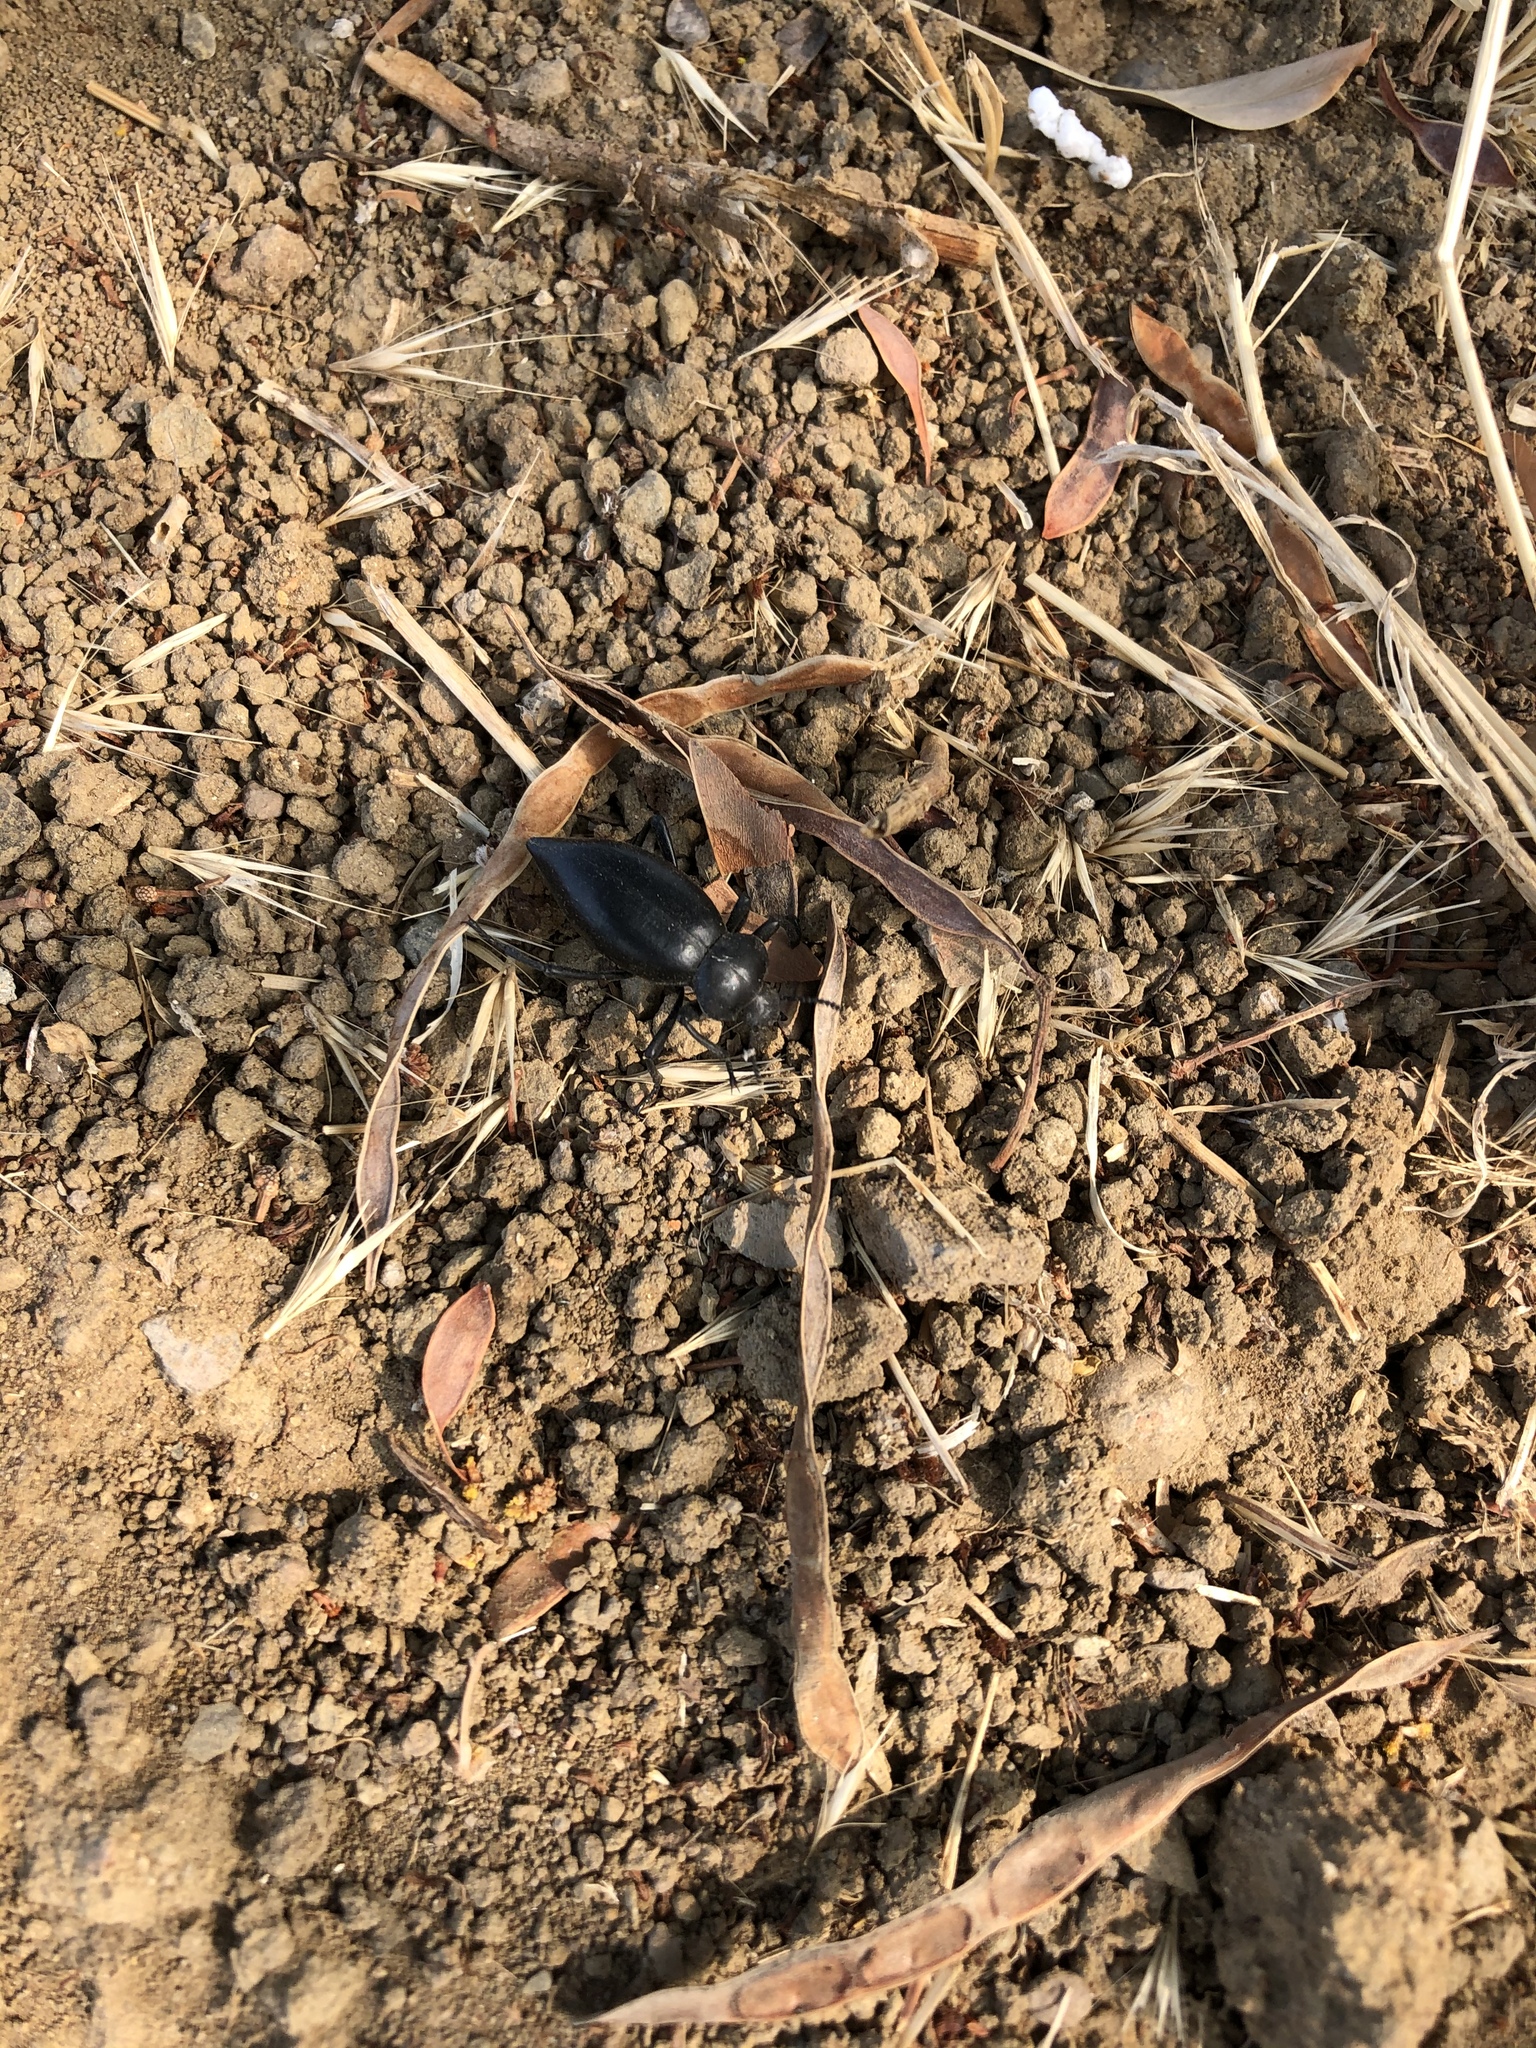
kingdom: Animalia
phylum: Arthropoda
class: Insecta
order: Coleoptera
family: Tenebrionidae
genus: Eleodes
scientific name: Eleodes acuticauda
